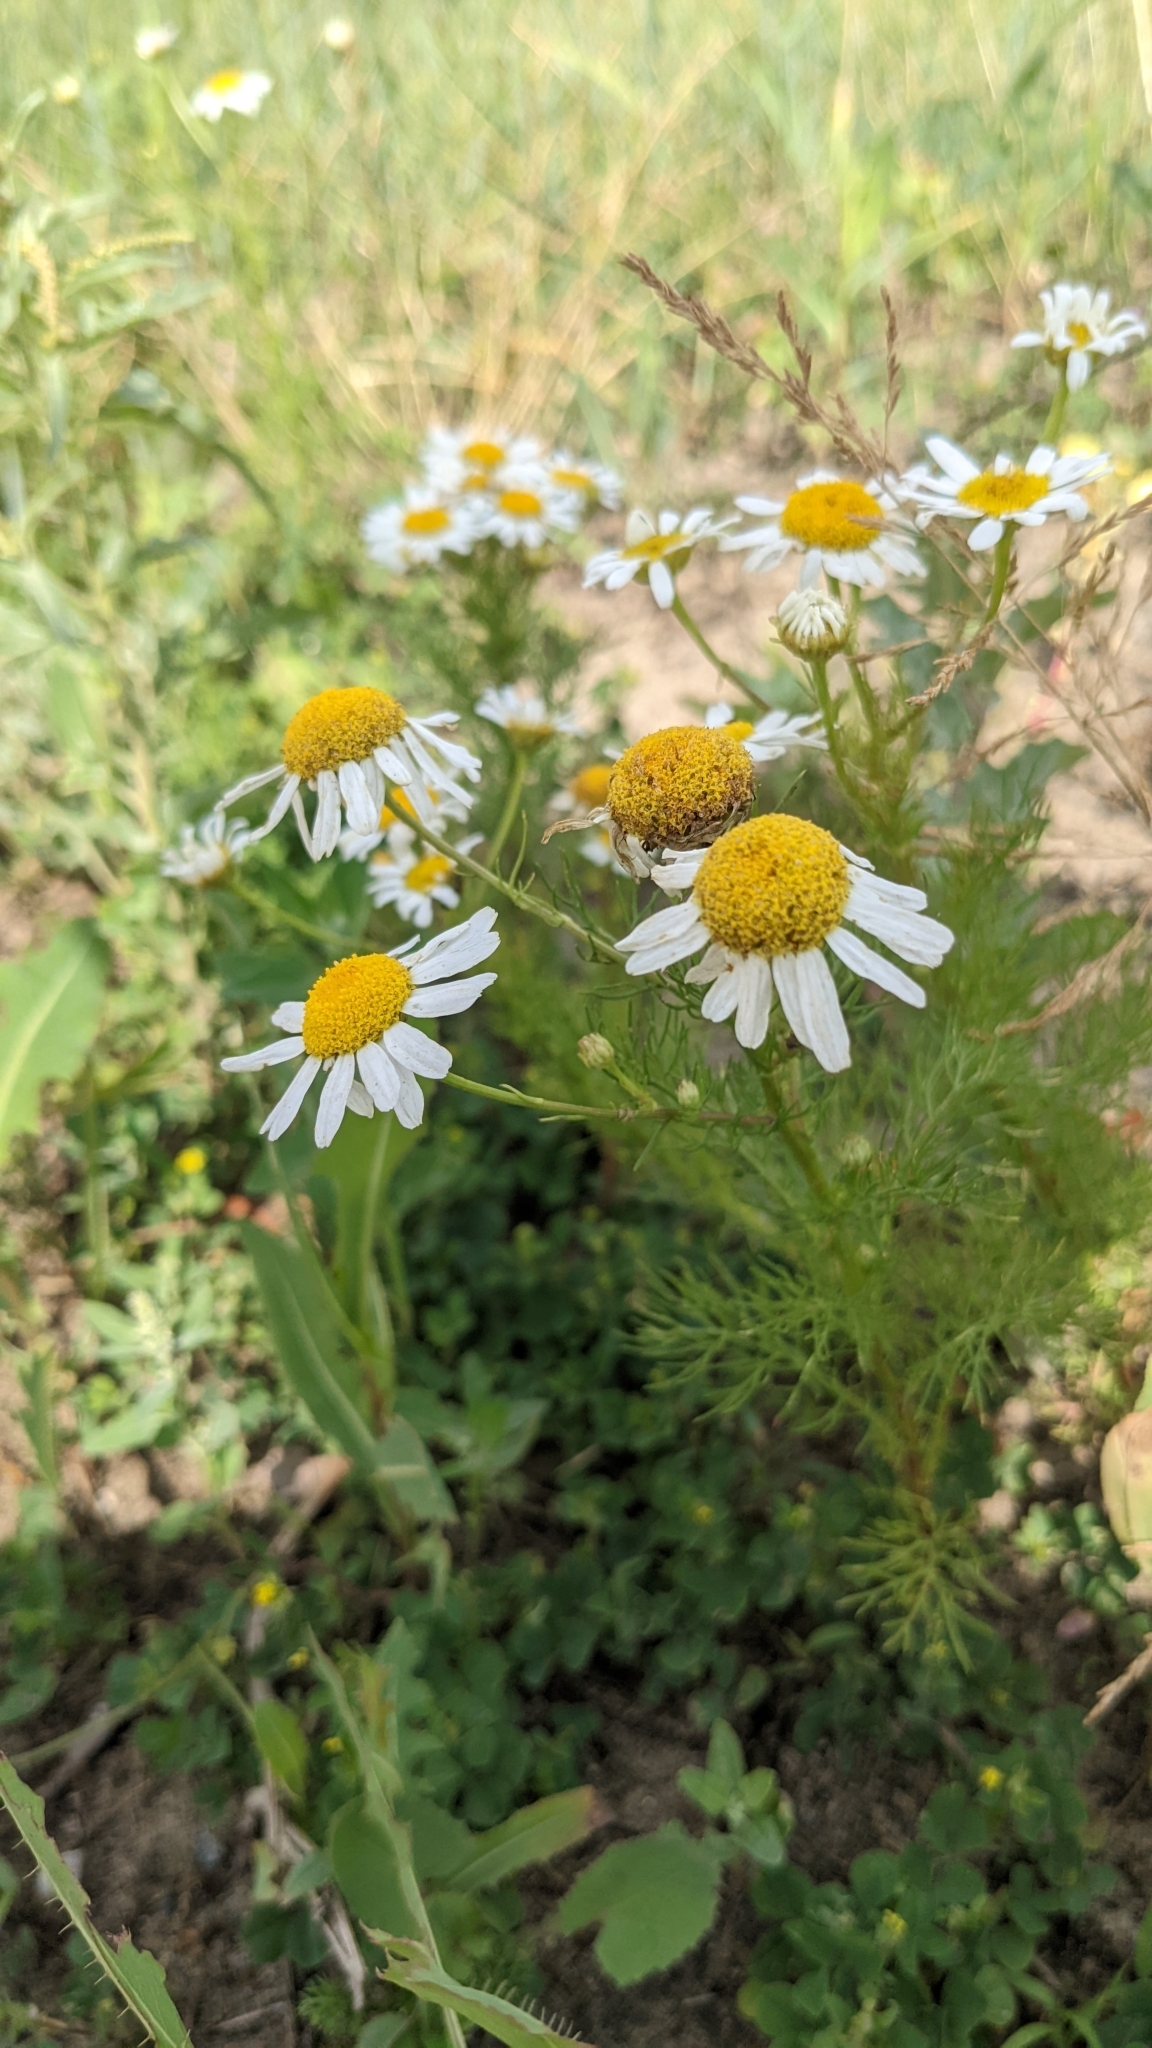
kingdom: Plantae
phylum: Tracheophyta
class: Magnoliopsida
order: Asterales
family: Asteraceae
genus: Tripleurospermum
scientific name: Tripleurospermum inodorum
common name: Scentless mayweed
